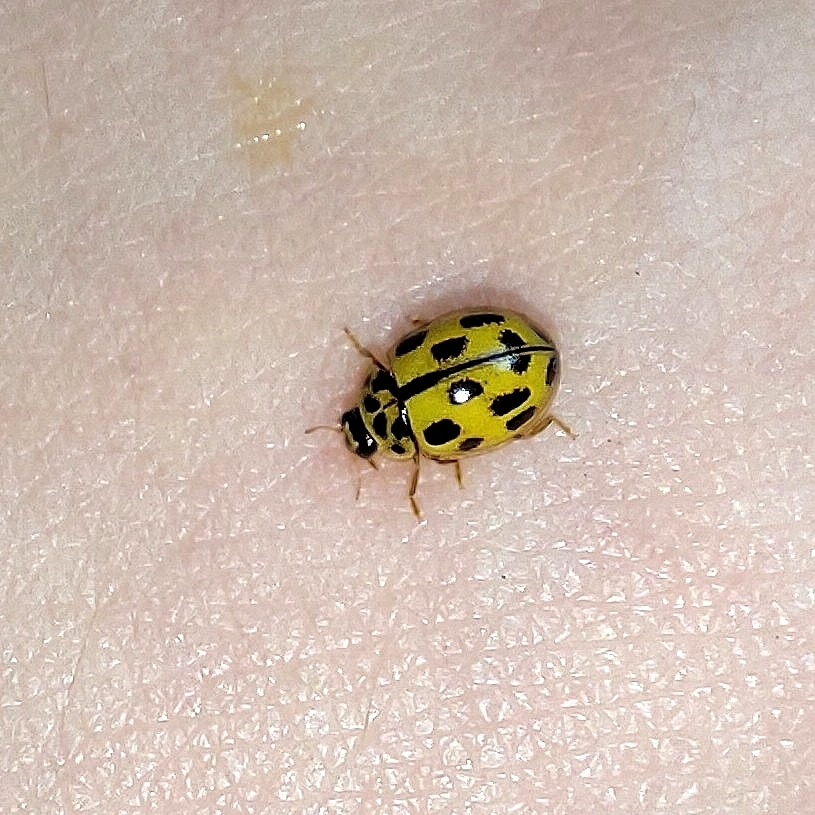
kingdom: Animalia
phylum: Arthropoda
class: Insecta
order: Coleoptera
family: Coccinellidae
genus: Propylaea
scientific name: Propylaea quatuordecimpunctata
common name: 14-spotted ladybird beetle
